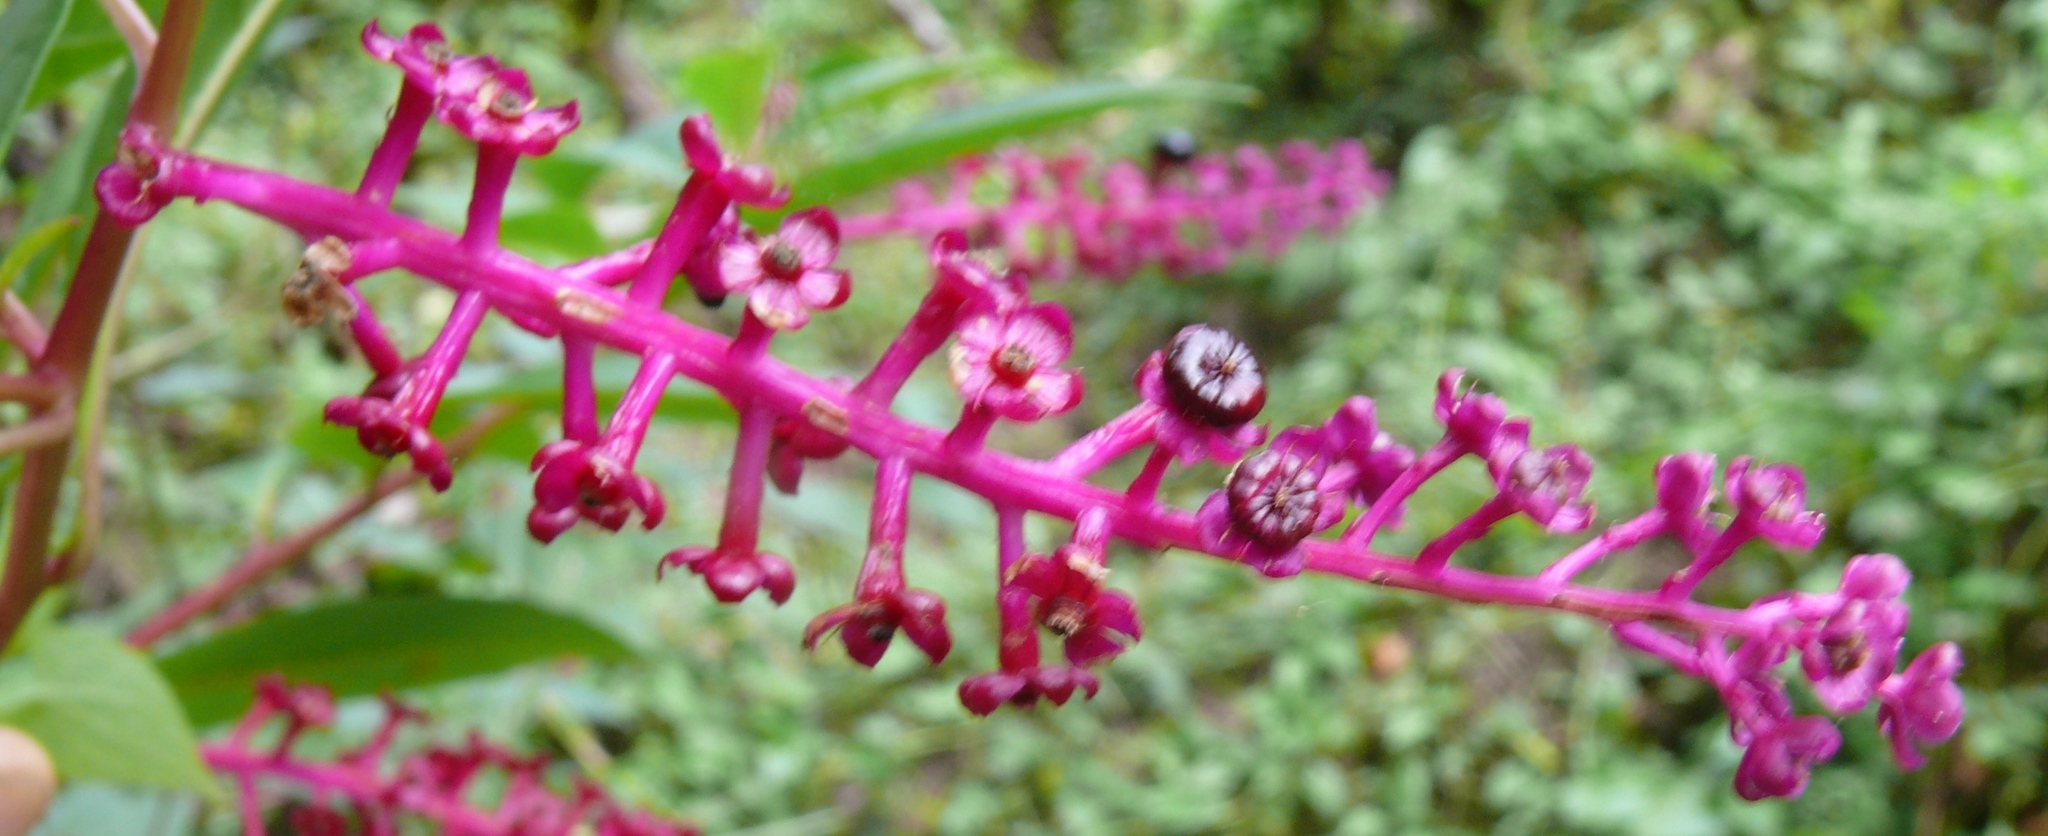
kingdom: Plantae
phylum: Tracheophyta
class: Magnoliopsida
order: Caryophyllales
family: Phytolaccaceae
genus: Phytolacca
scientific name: Phytolacca americana
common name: American pokeweed
